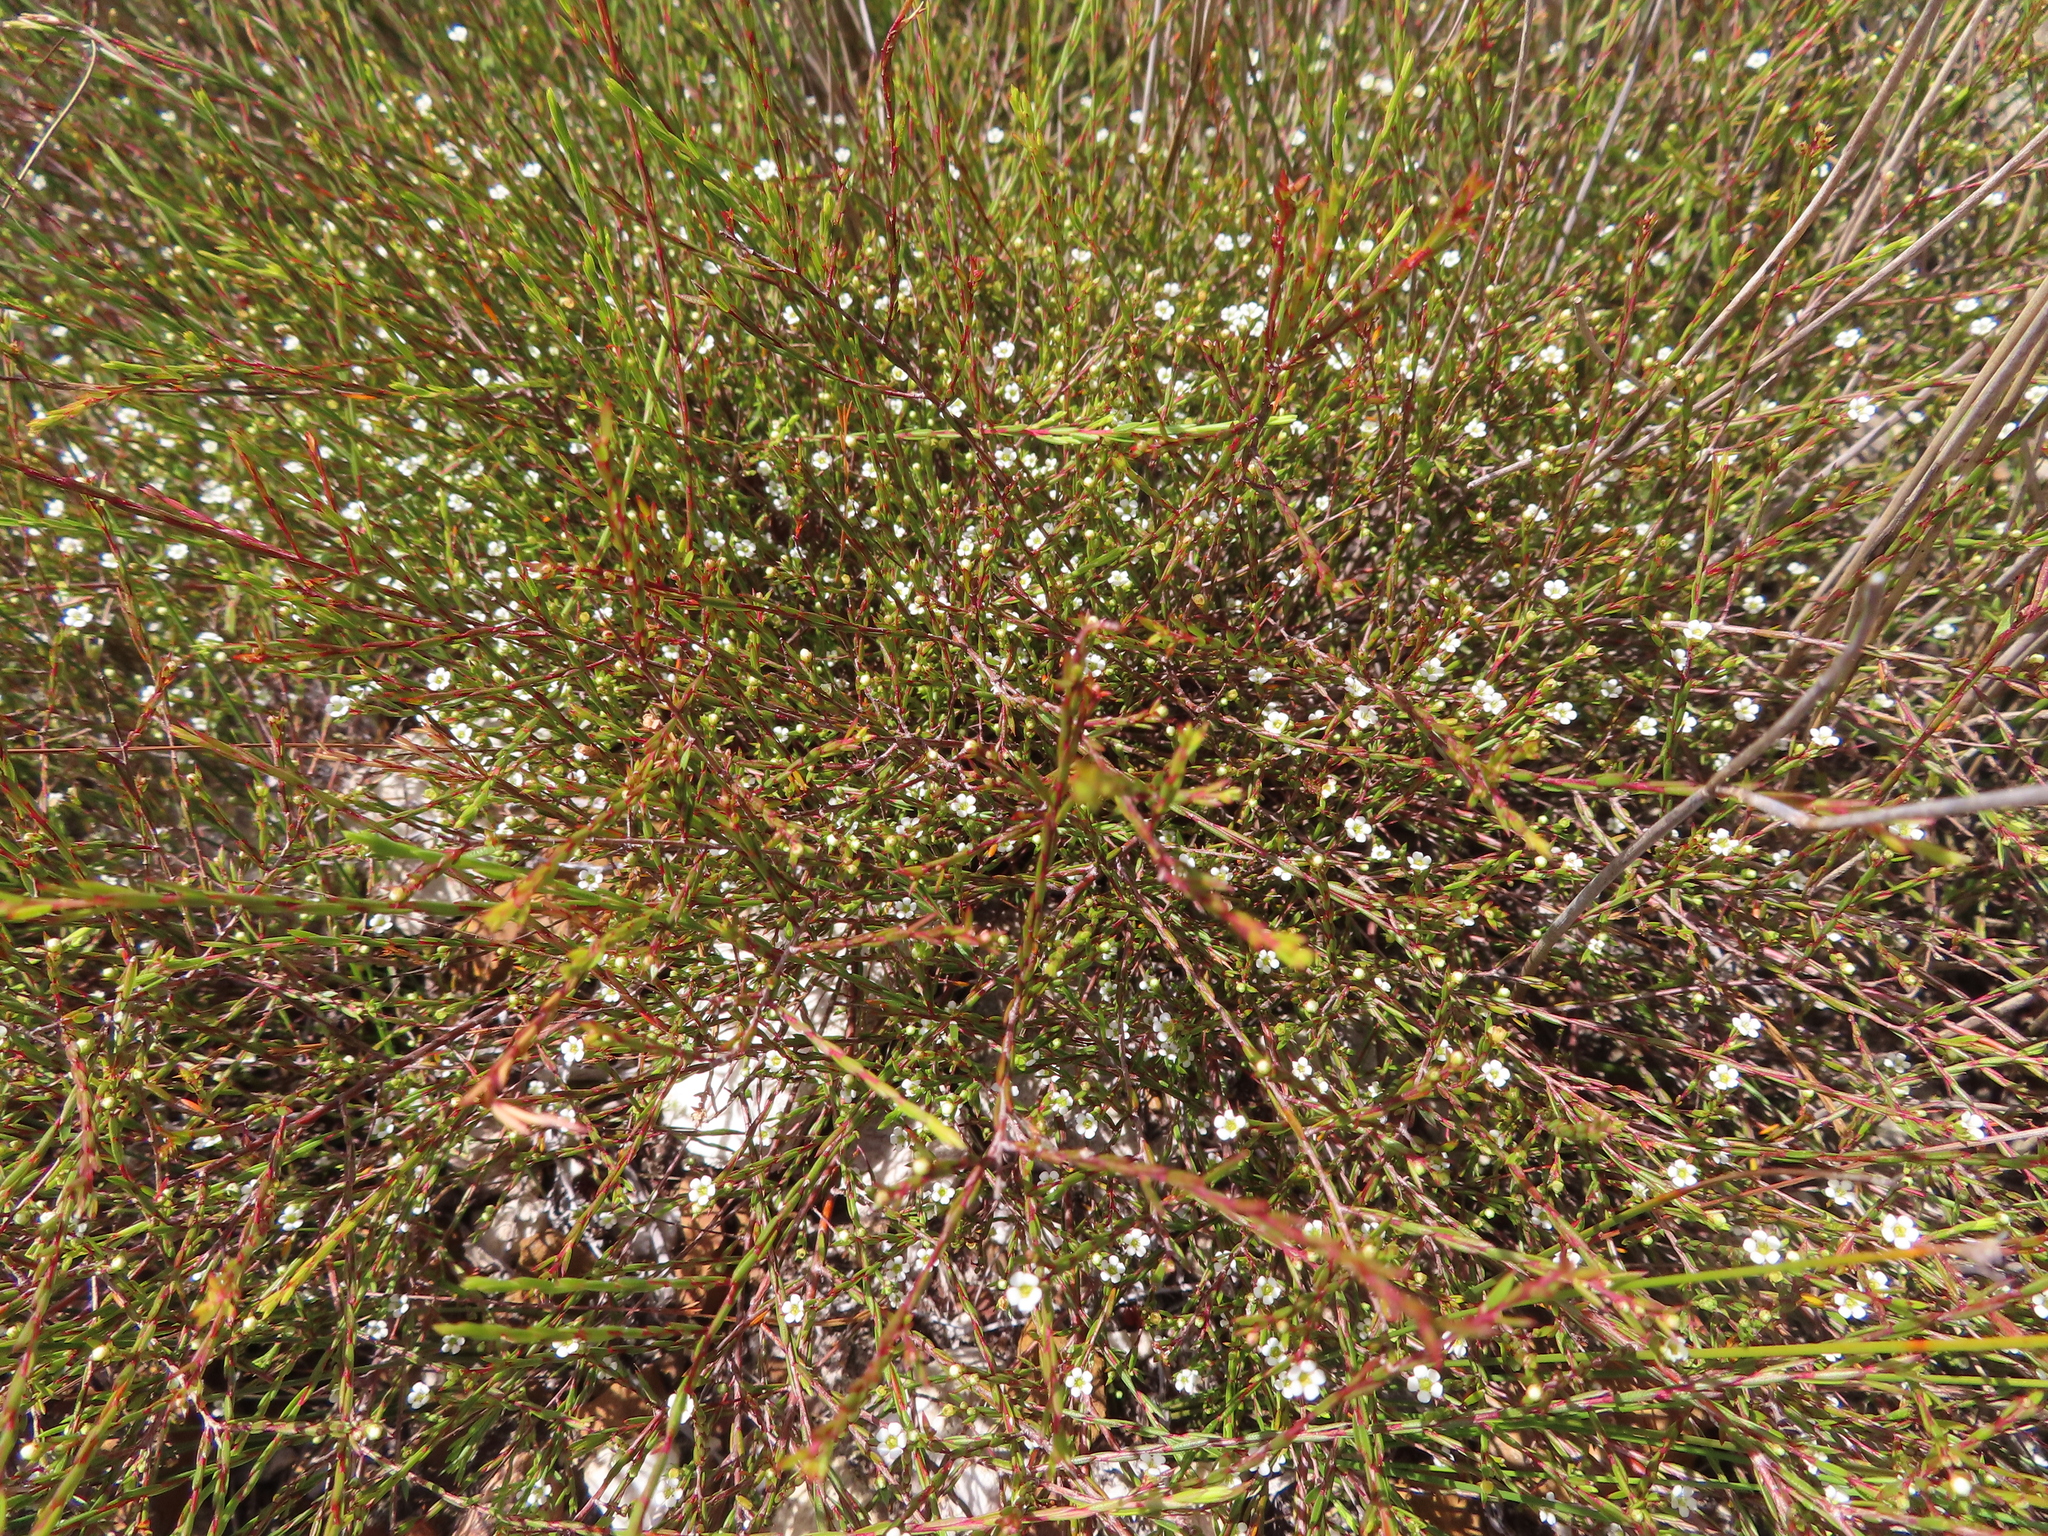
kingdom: Plantae
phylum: Tracheophyta
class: Magnoliopsida
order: Sapindales
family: Rutaceae
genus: Coleonema
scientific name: Coleonema juniperinum
